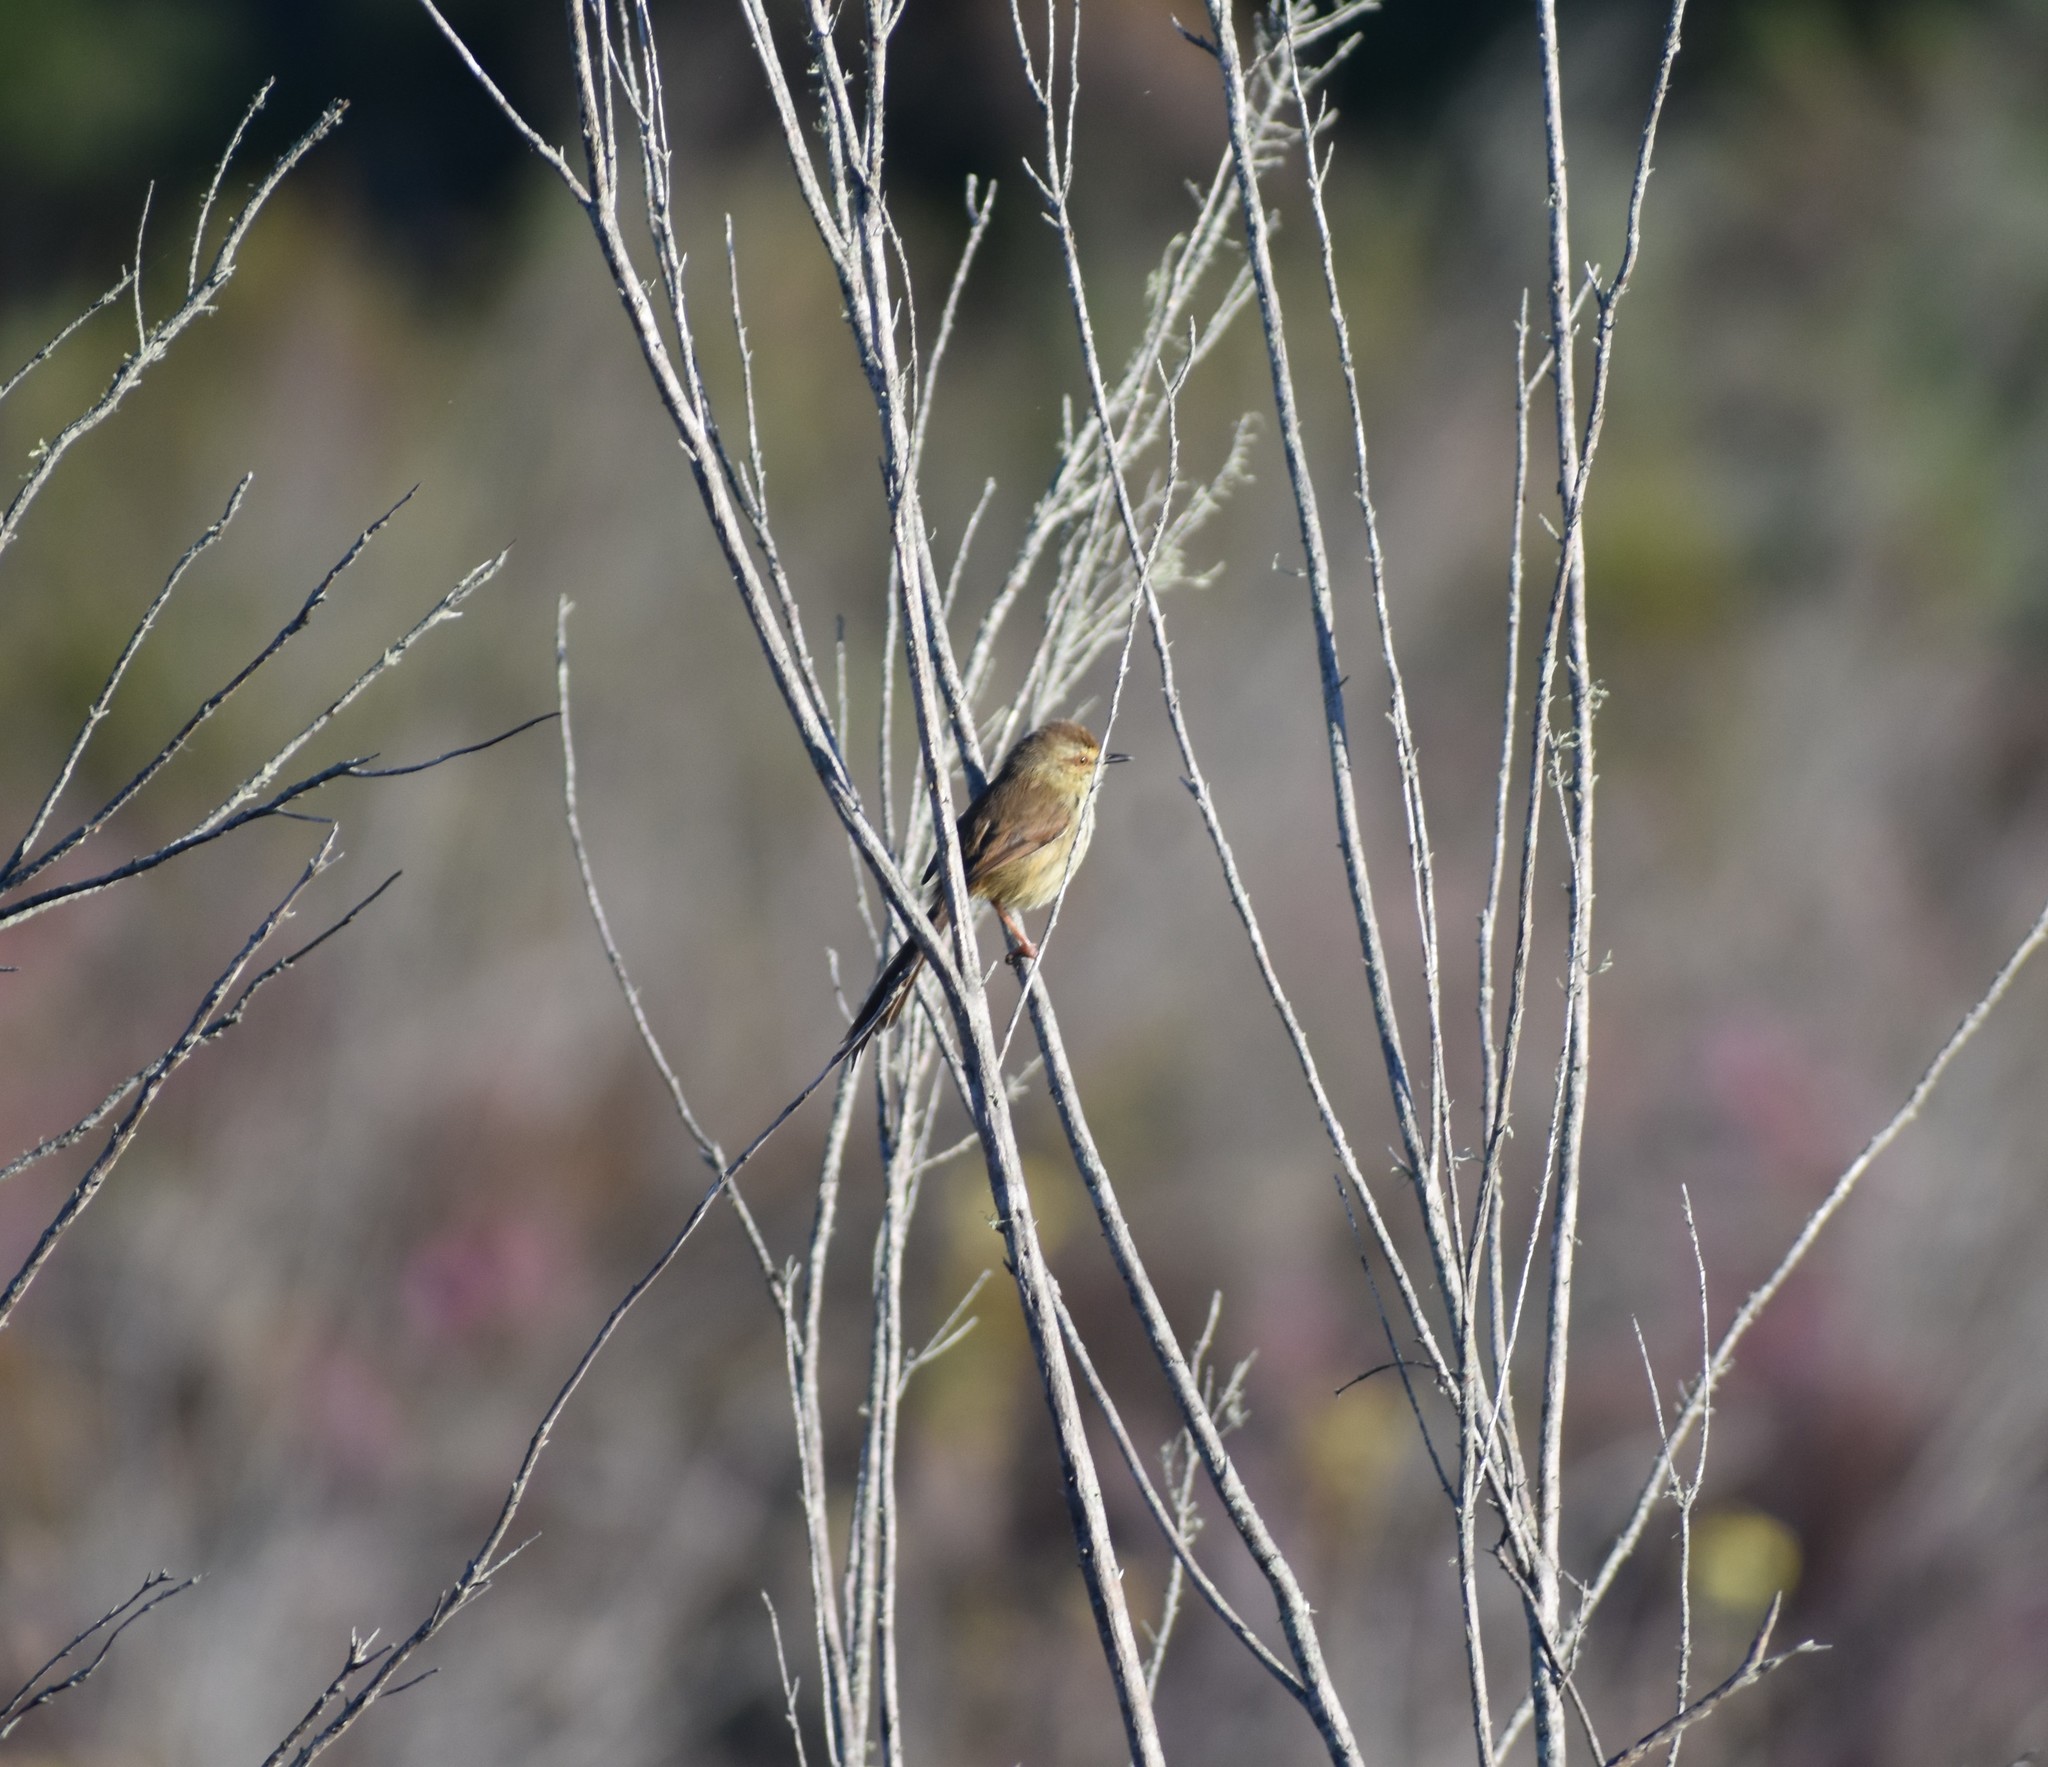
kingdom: Animalia
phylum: Chordata
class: Aves
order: Passeriformes
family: Cisticolidae
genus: Prinia
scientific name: Prinia maculosa
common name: Karoo prinia
